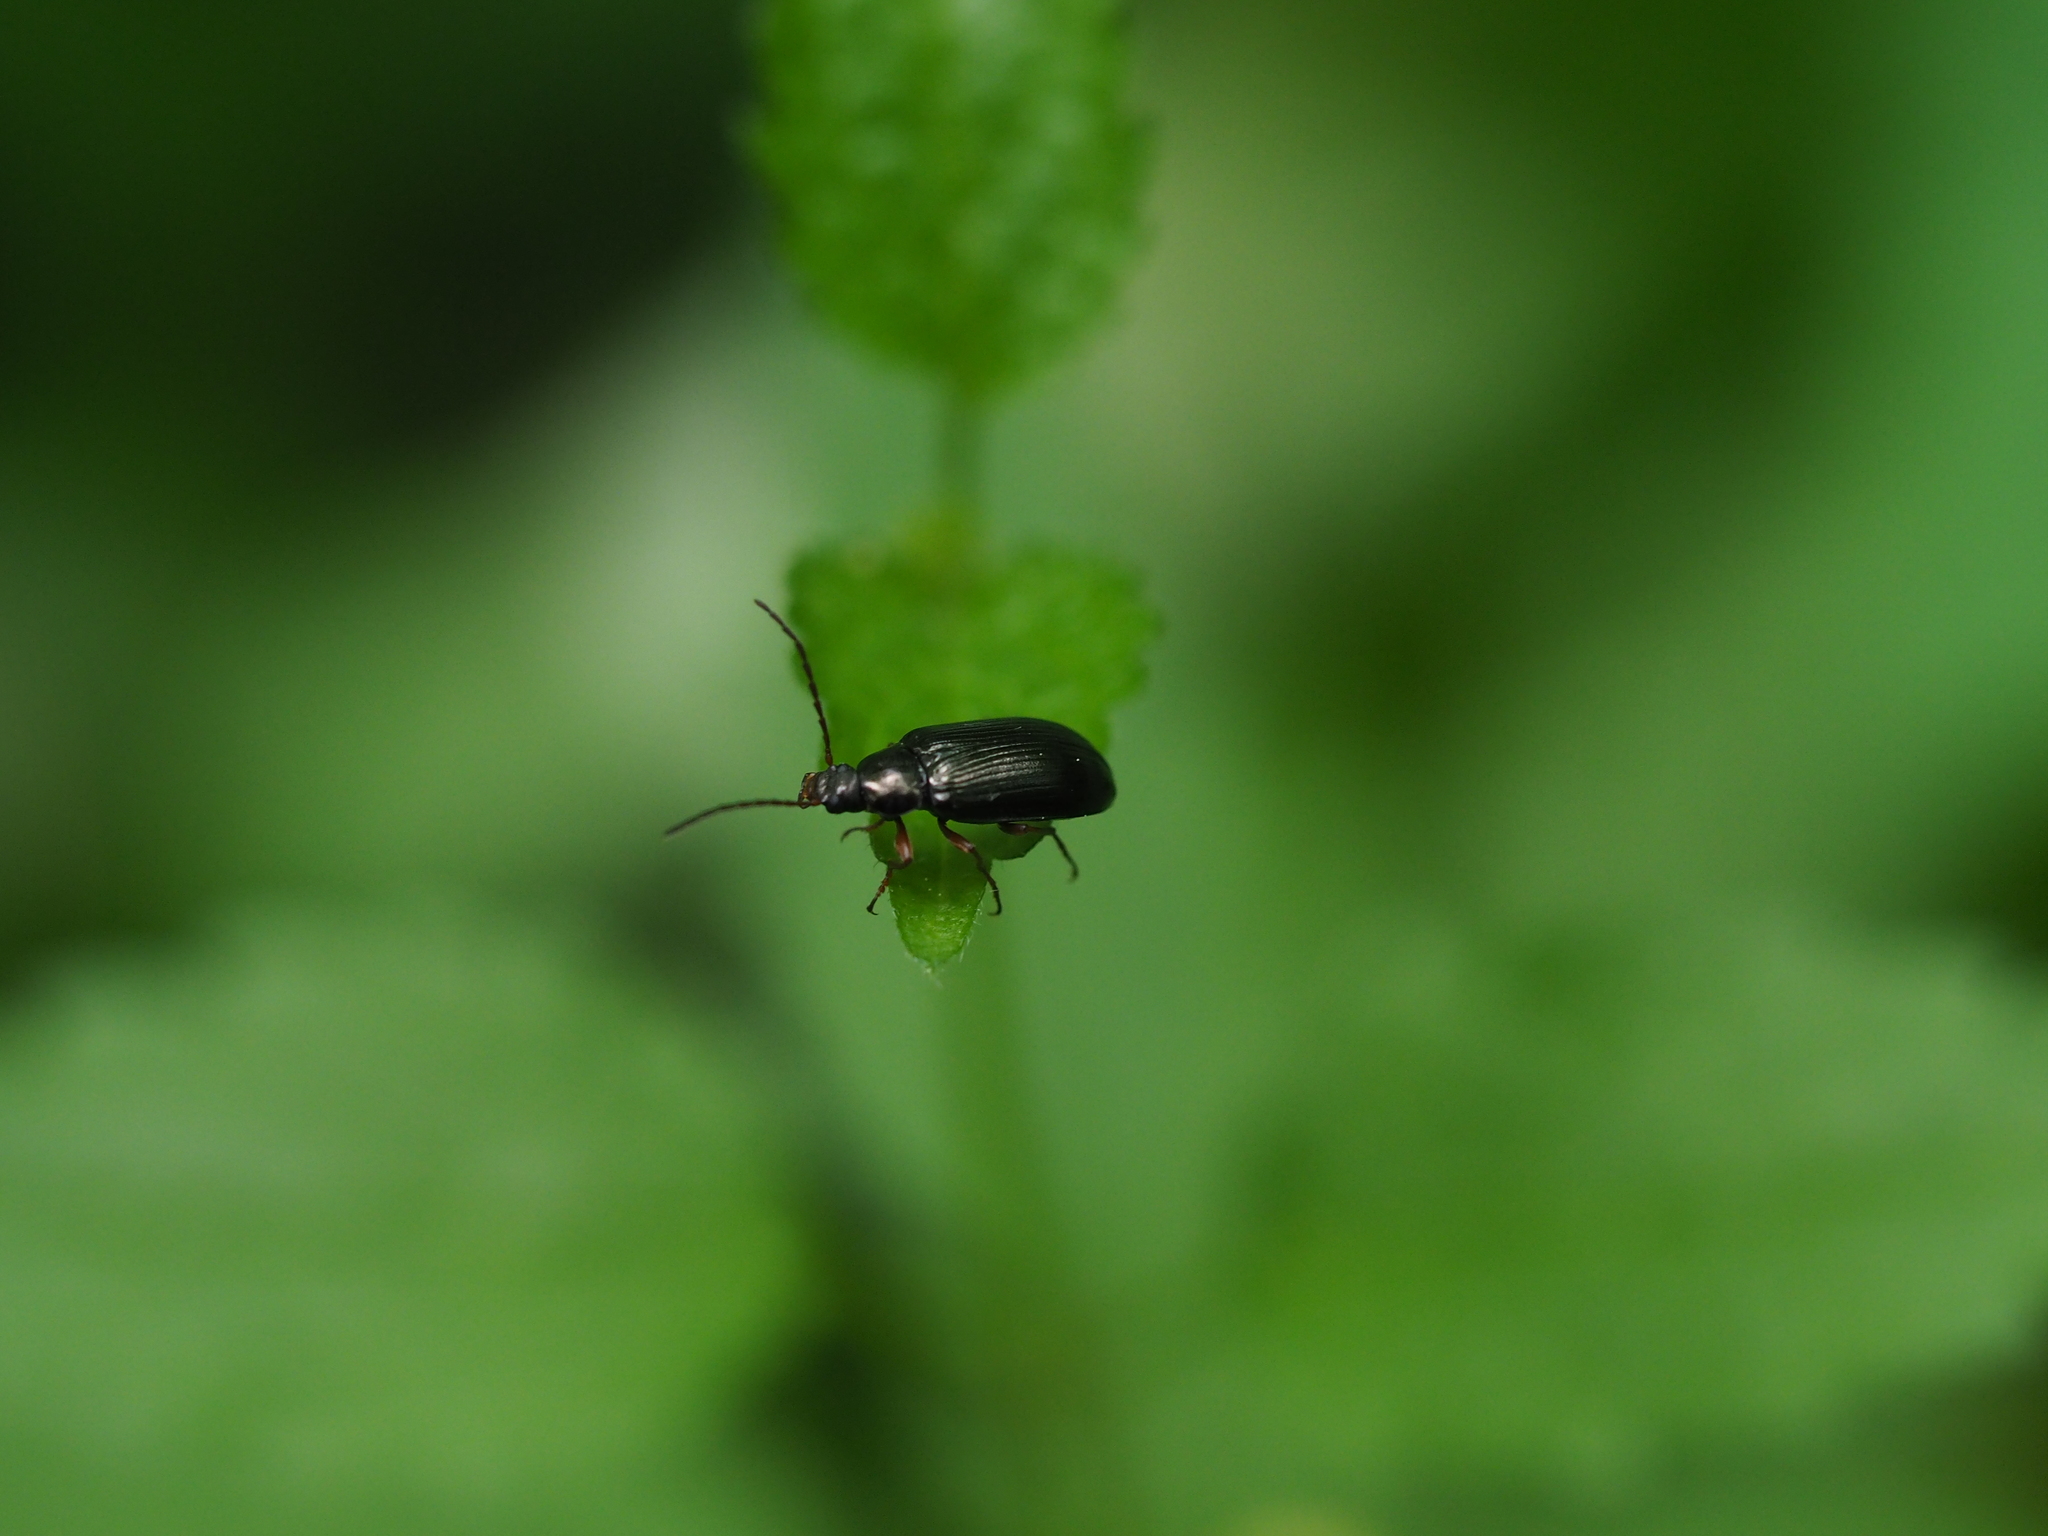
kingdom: Animalia
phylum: Arthropoda
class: Insecta
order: Coleoptera
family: Tenebrionidae
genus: Gonodera
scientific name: Gonodera luperus
